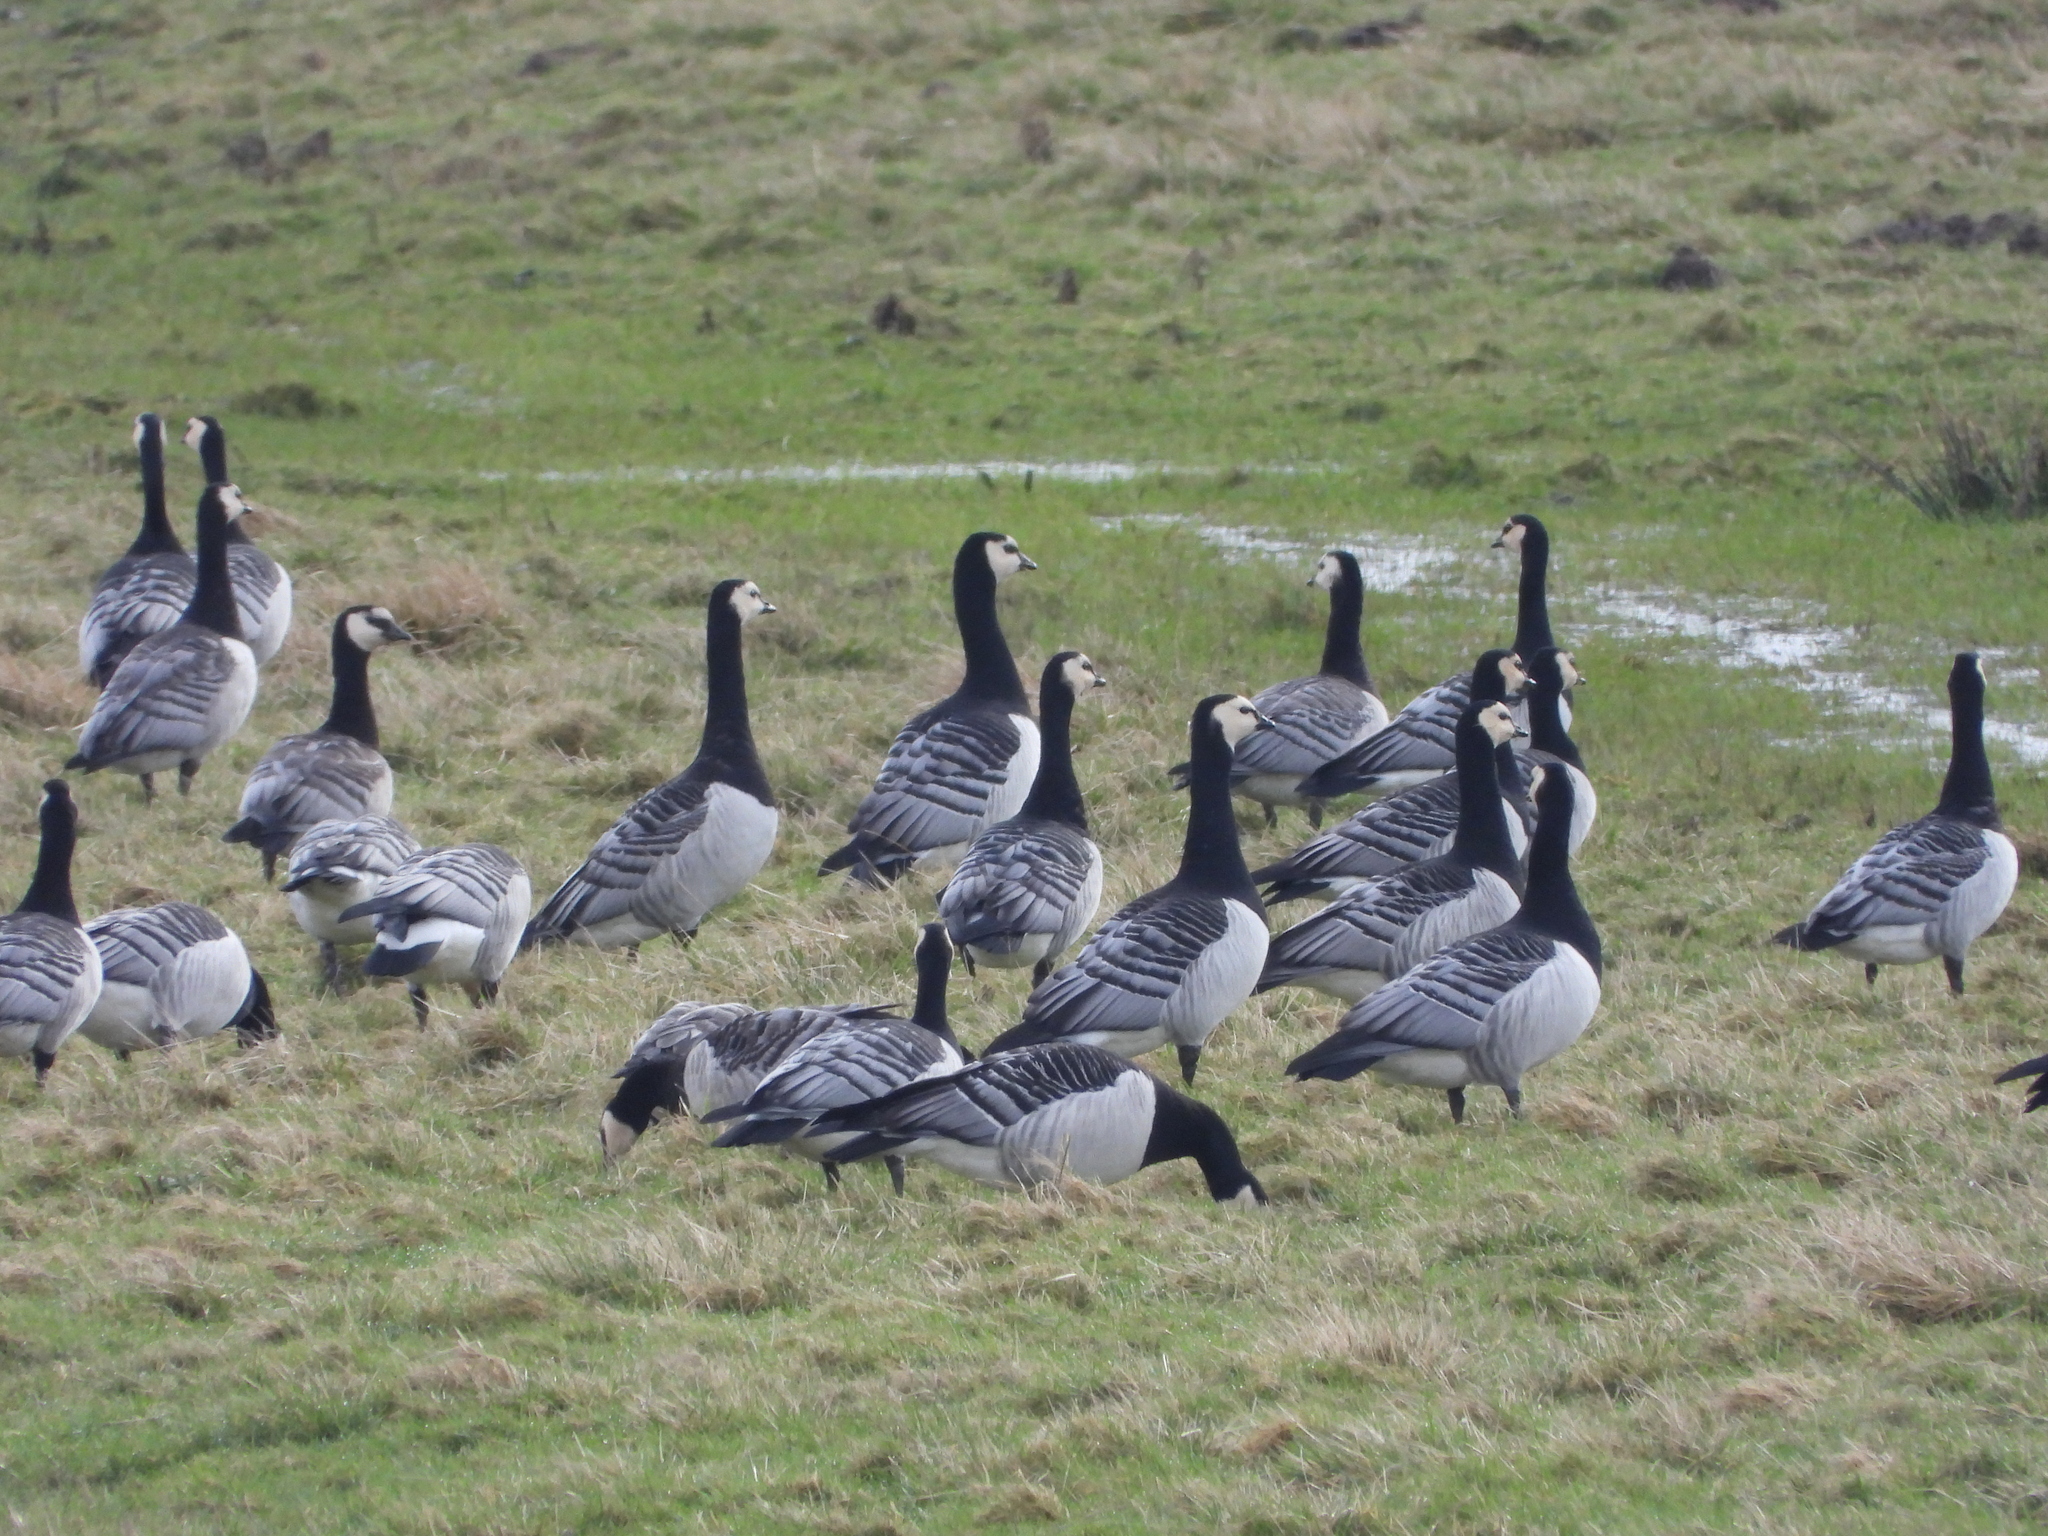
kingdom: Animalia
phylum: Chordata
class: Aves
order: Anseriformes
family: Anatidae
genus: Branta
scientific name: Branta leucopsis
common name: Barnacle goose
